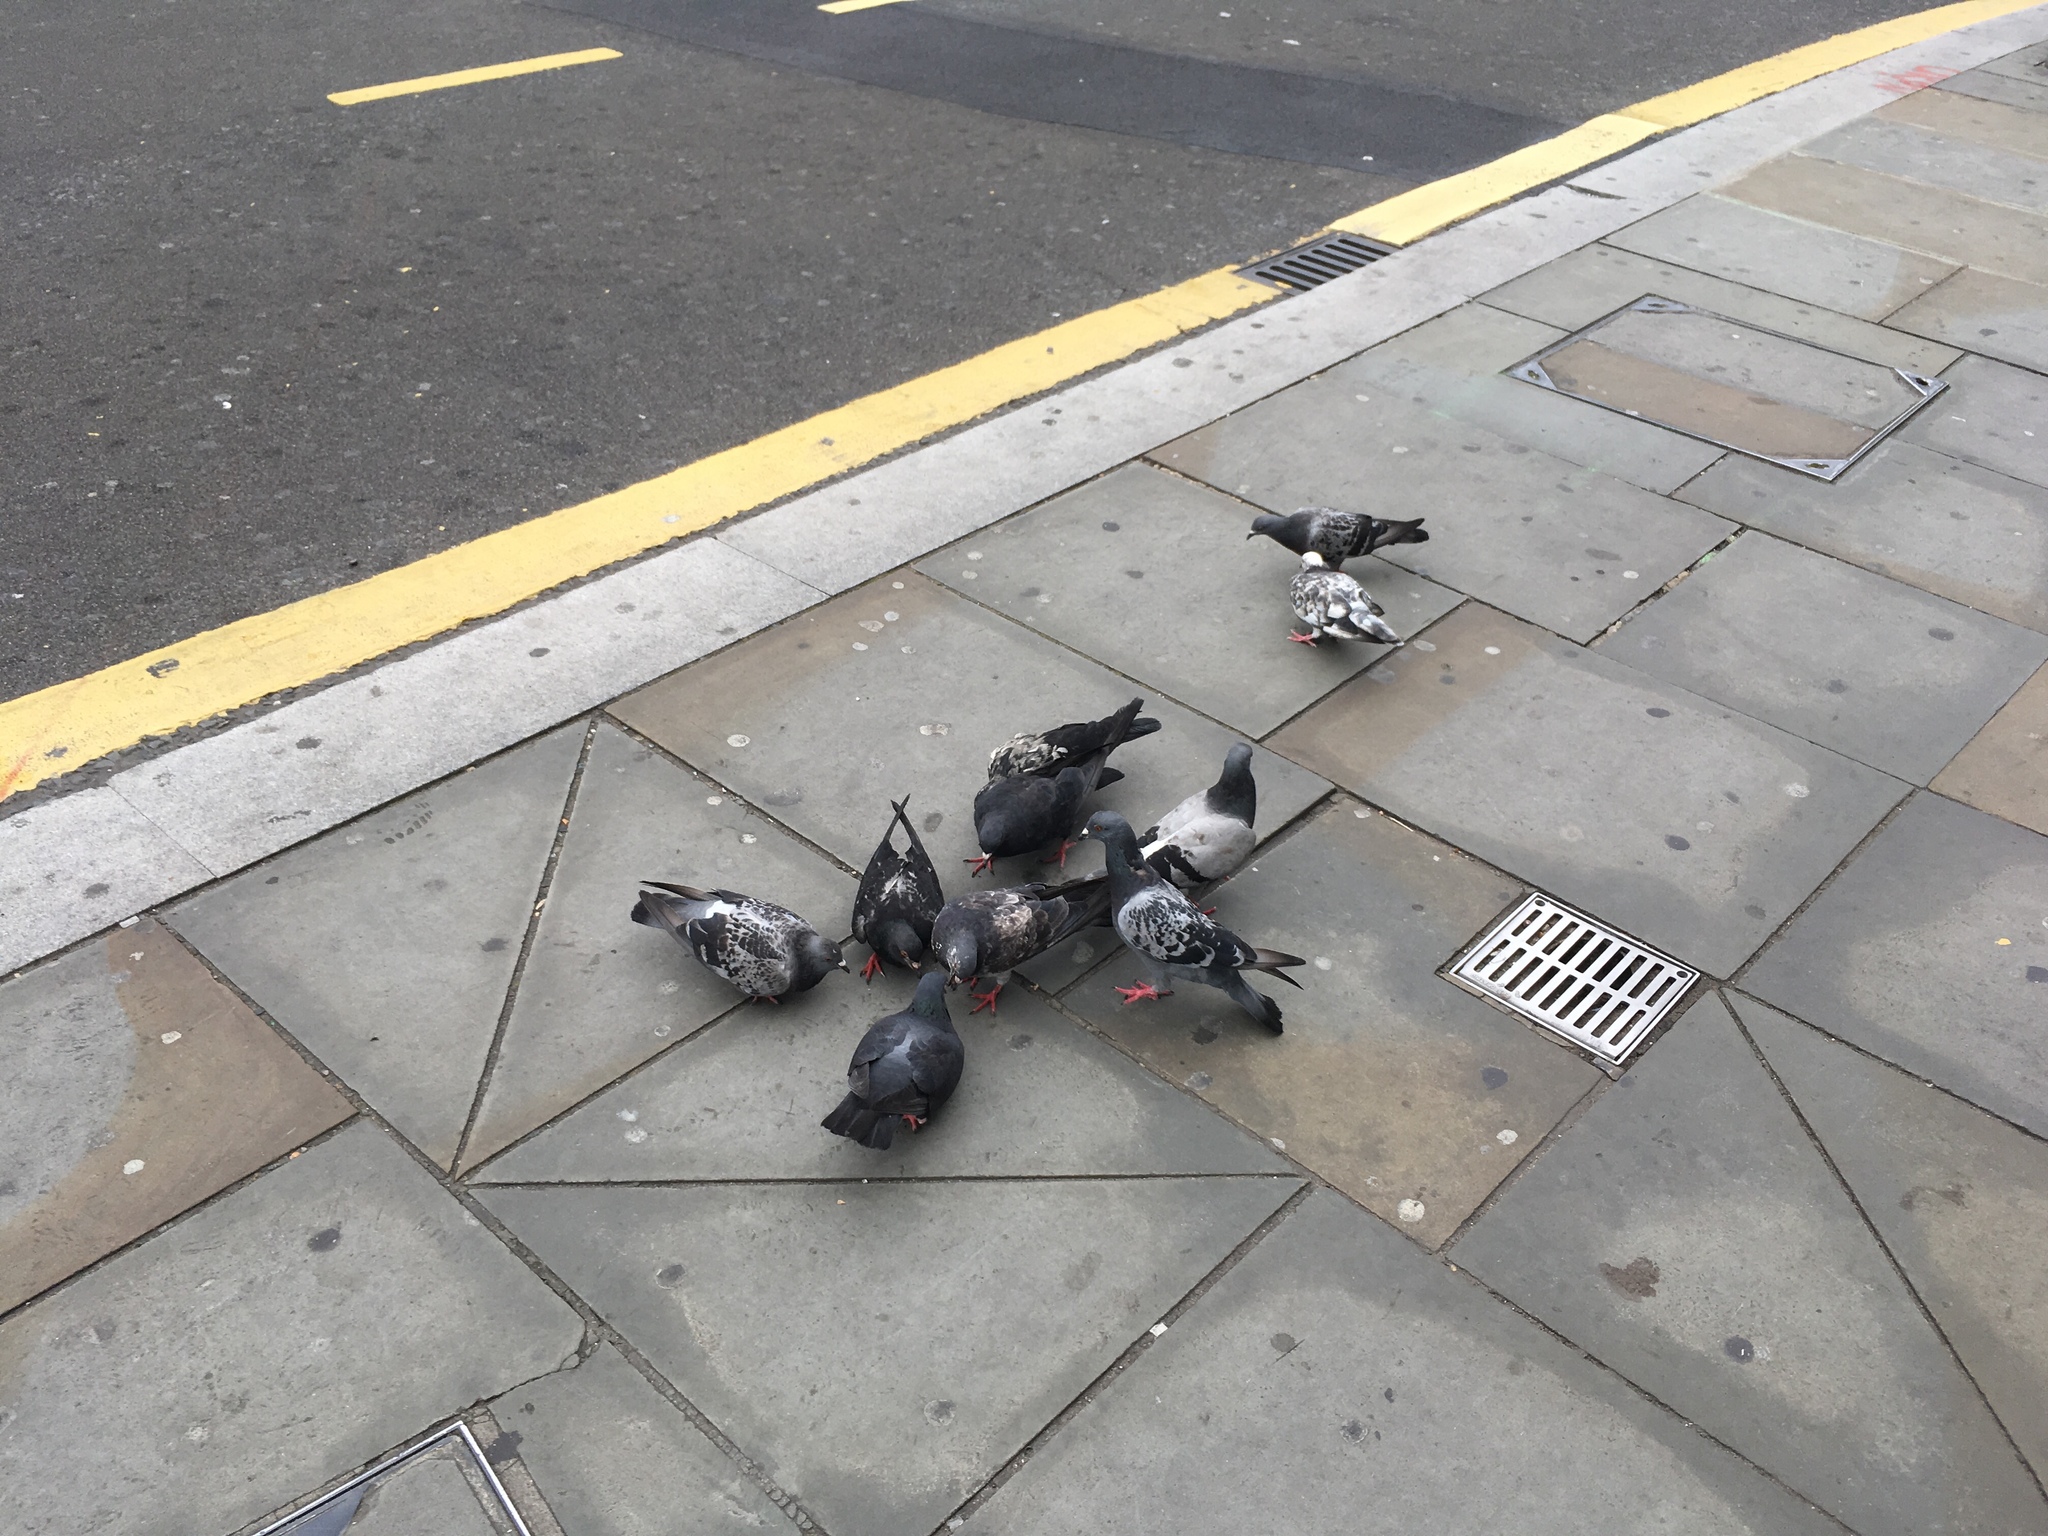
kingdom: Animalia
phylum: Chordata
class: Aves
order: Columbiformes
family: Columbidae
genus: Columba
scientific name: Columba livia
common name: Rock pigeon
